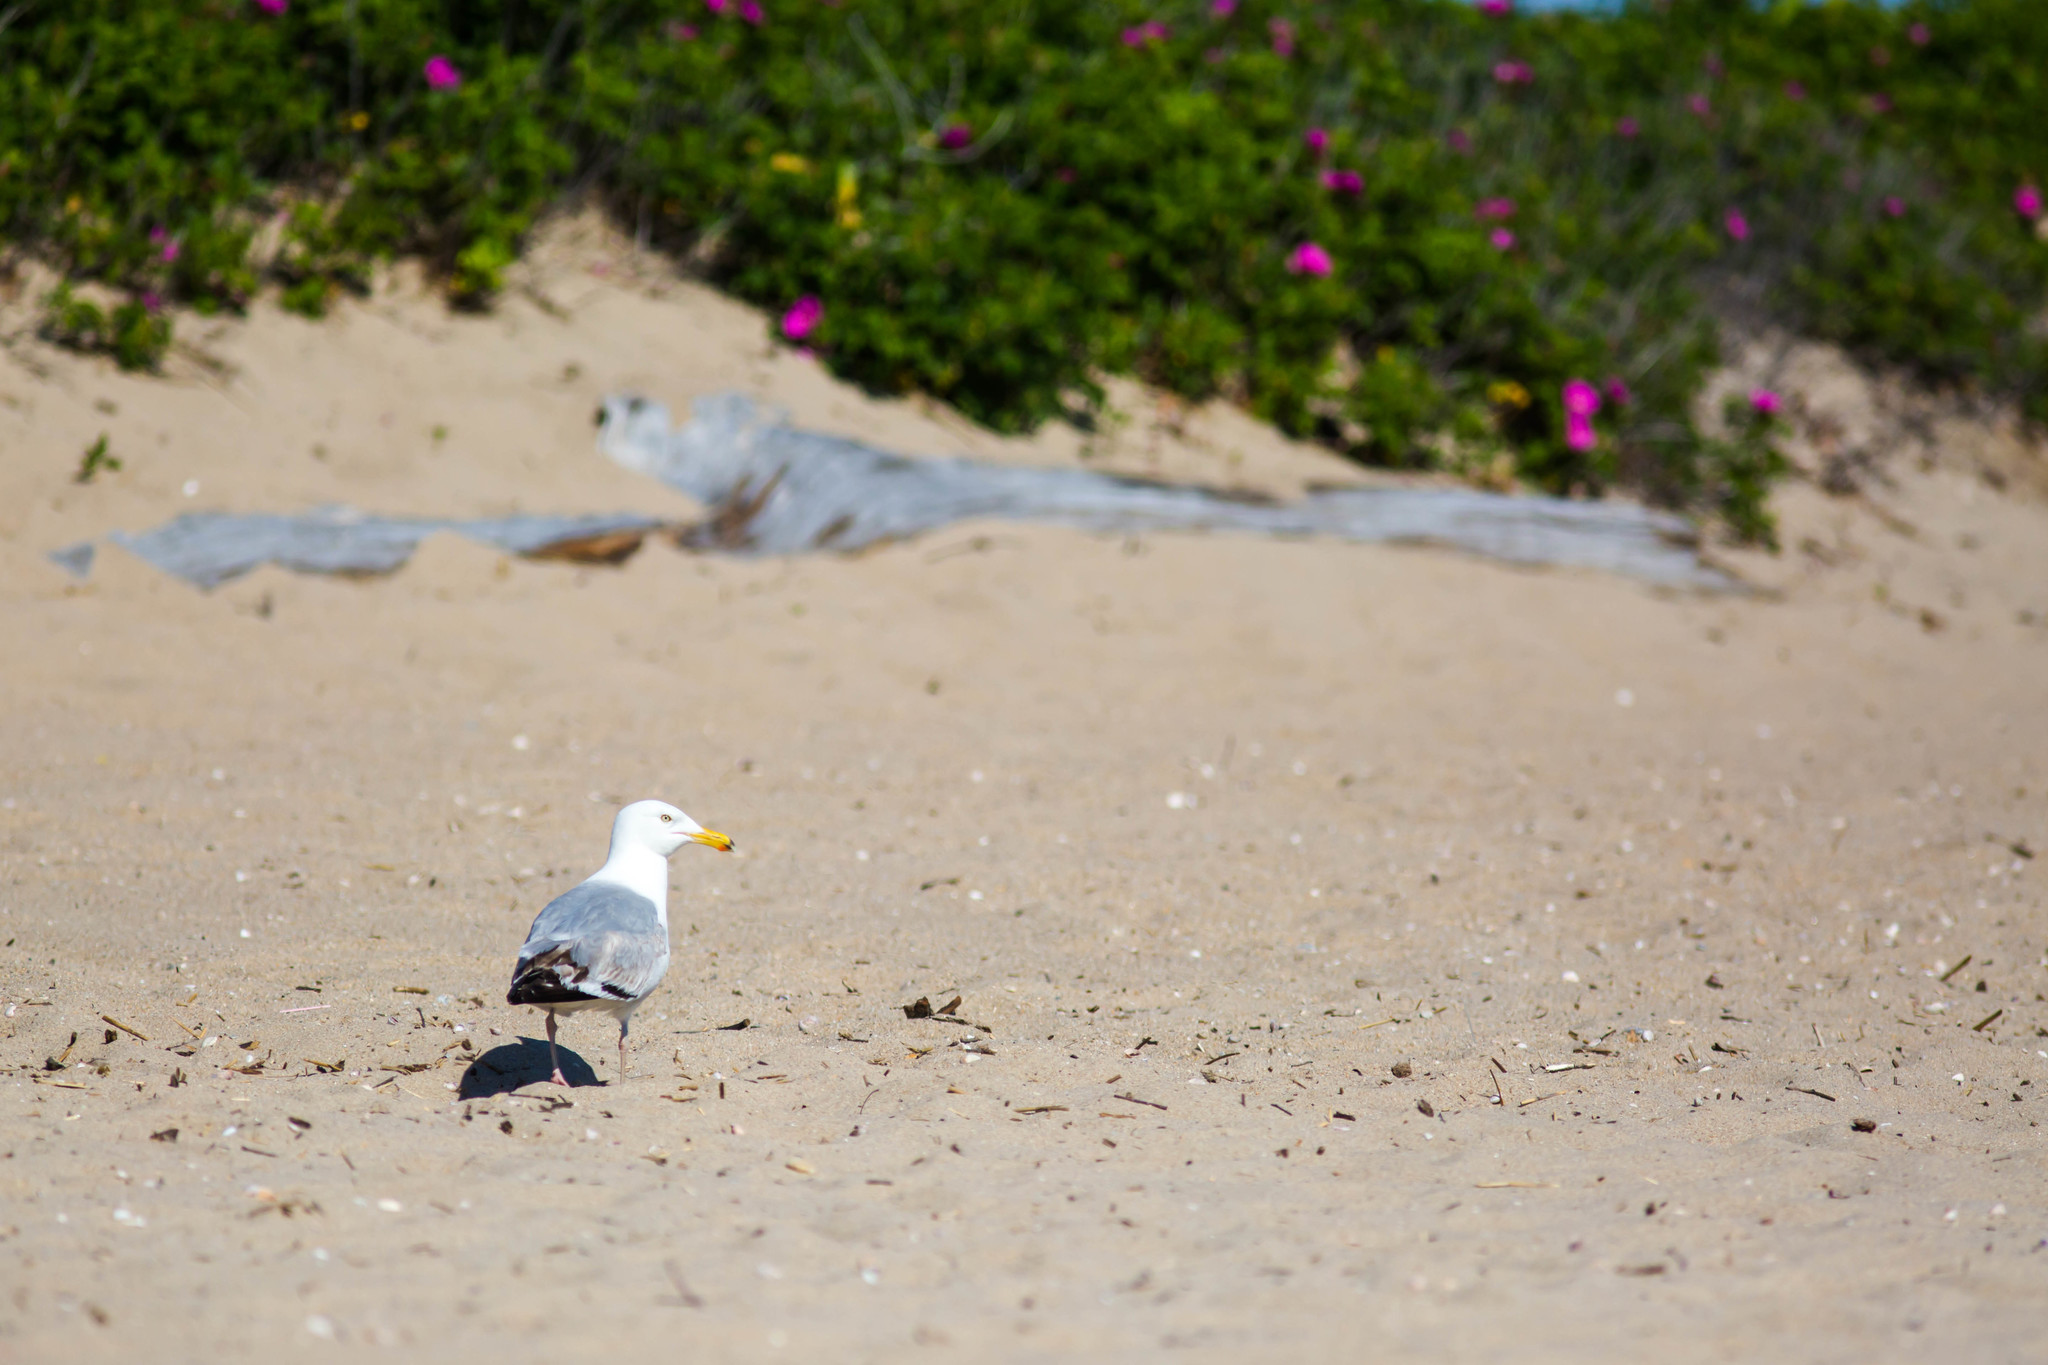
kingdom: Animalia
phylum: Chordata
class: Aves
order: Charadriiformes
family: Laridae
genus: Larus
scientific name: Larus argentatus
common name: Herring gull
